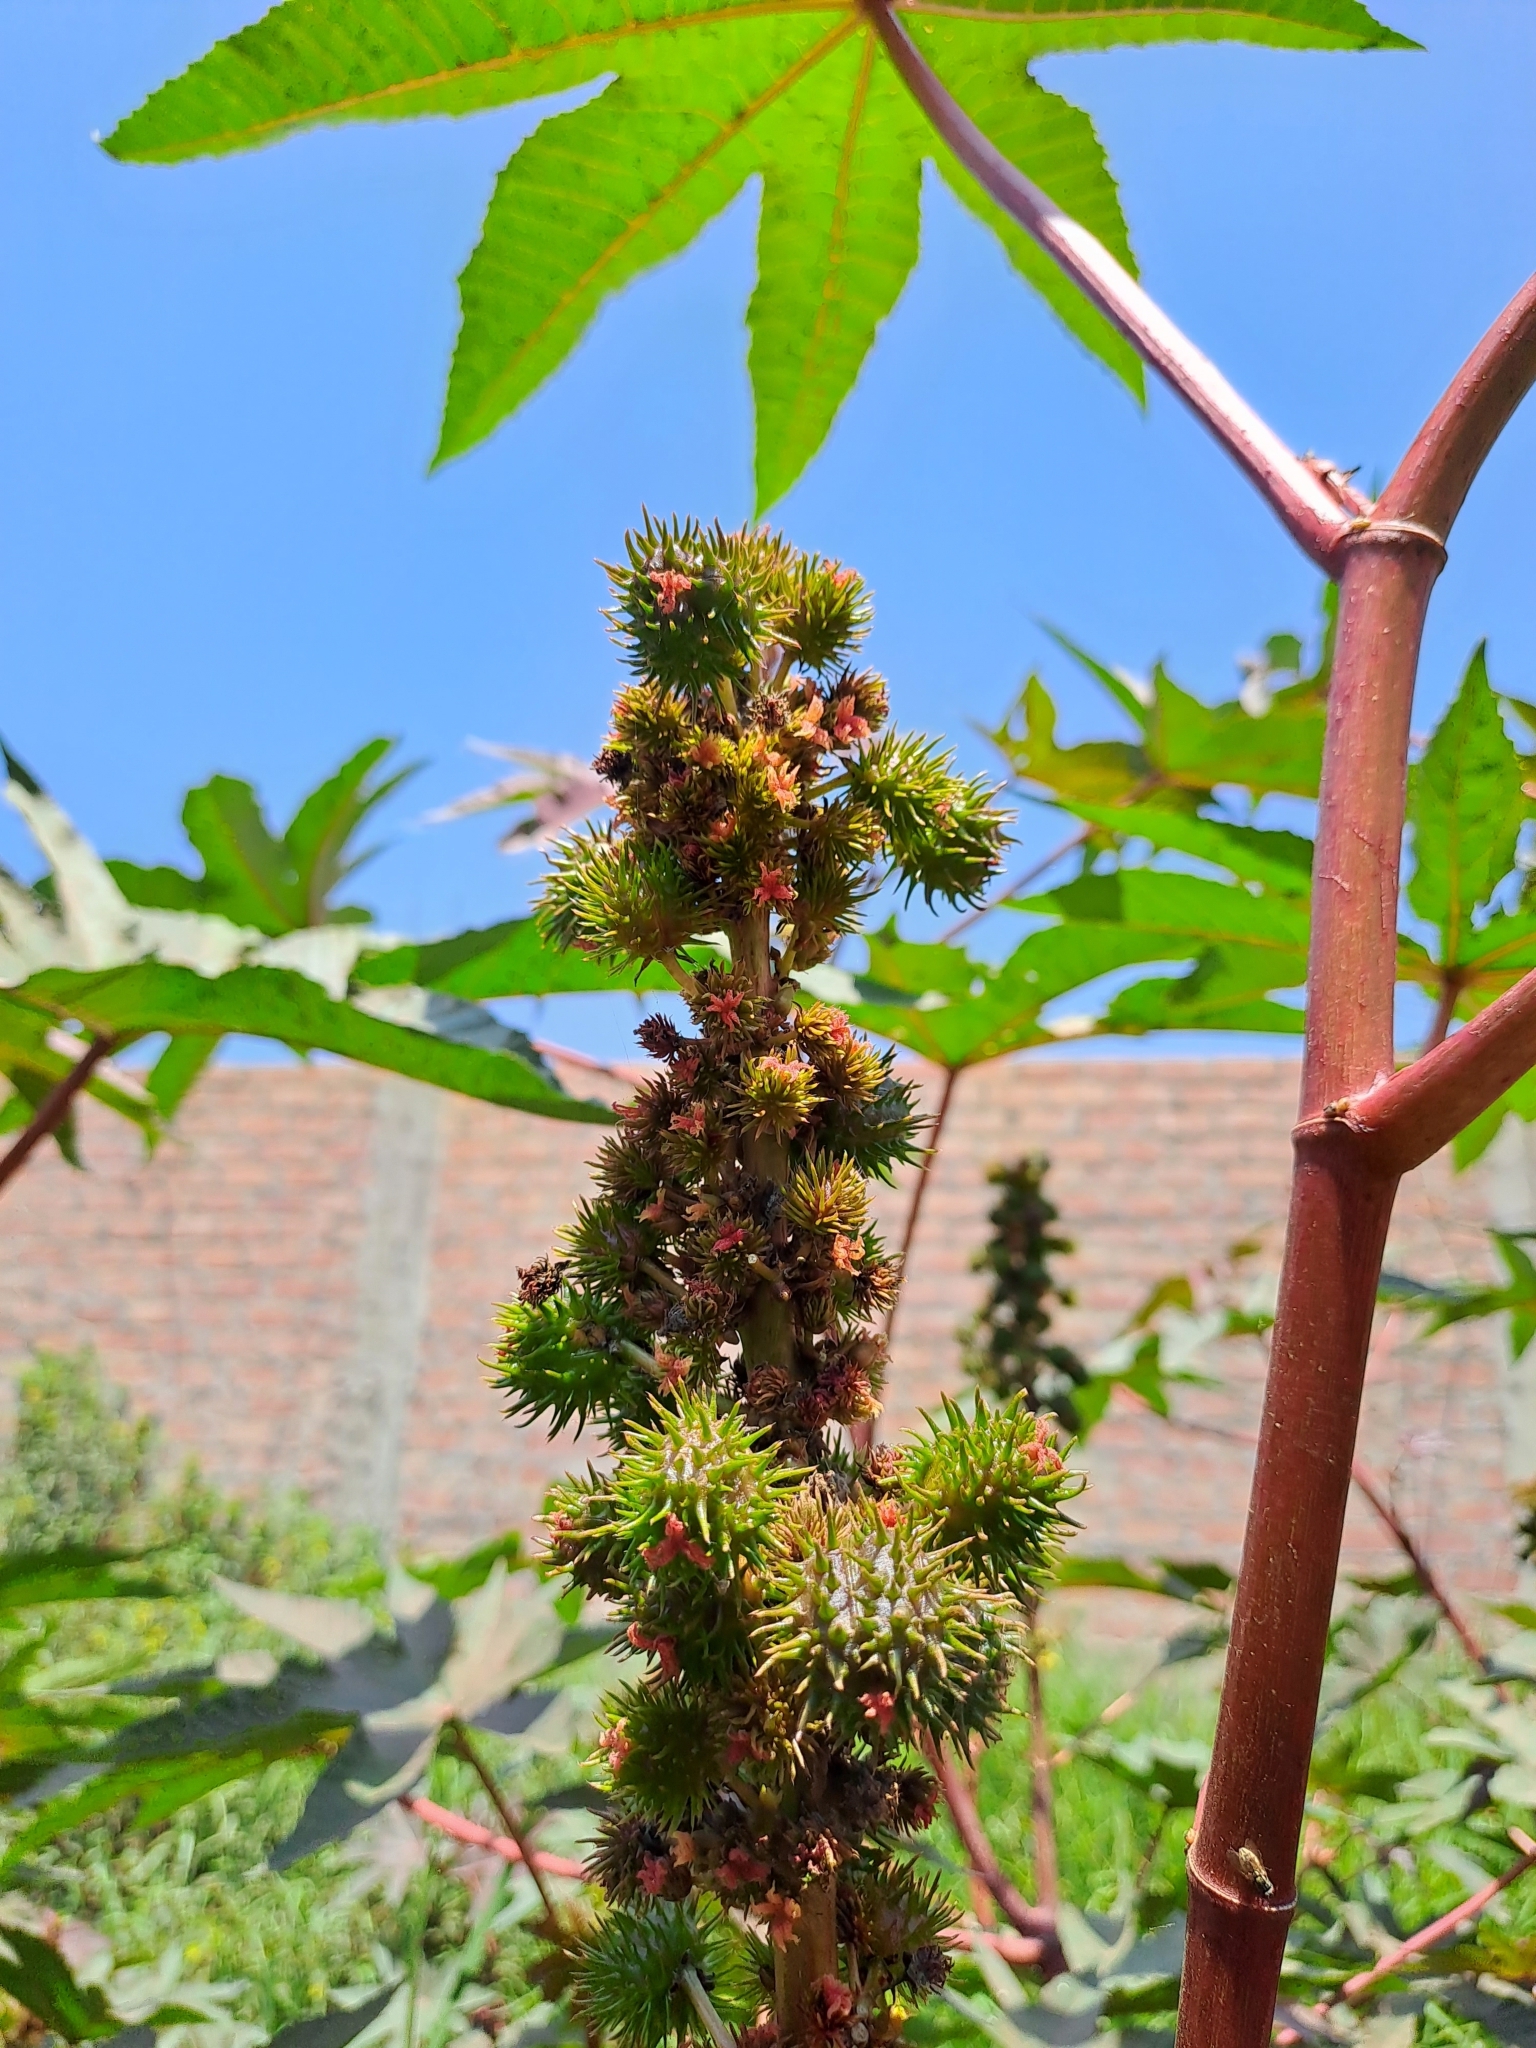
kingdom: Plantae
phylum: Tracheophyta
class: Magnoliopsida
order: Malpighiales
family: Euphorbiaceae
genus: Ricinus
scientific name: Ricinus communis
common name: Castor-oil-plant
